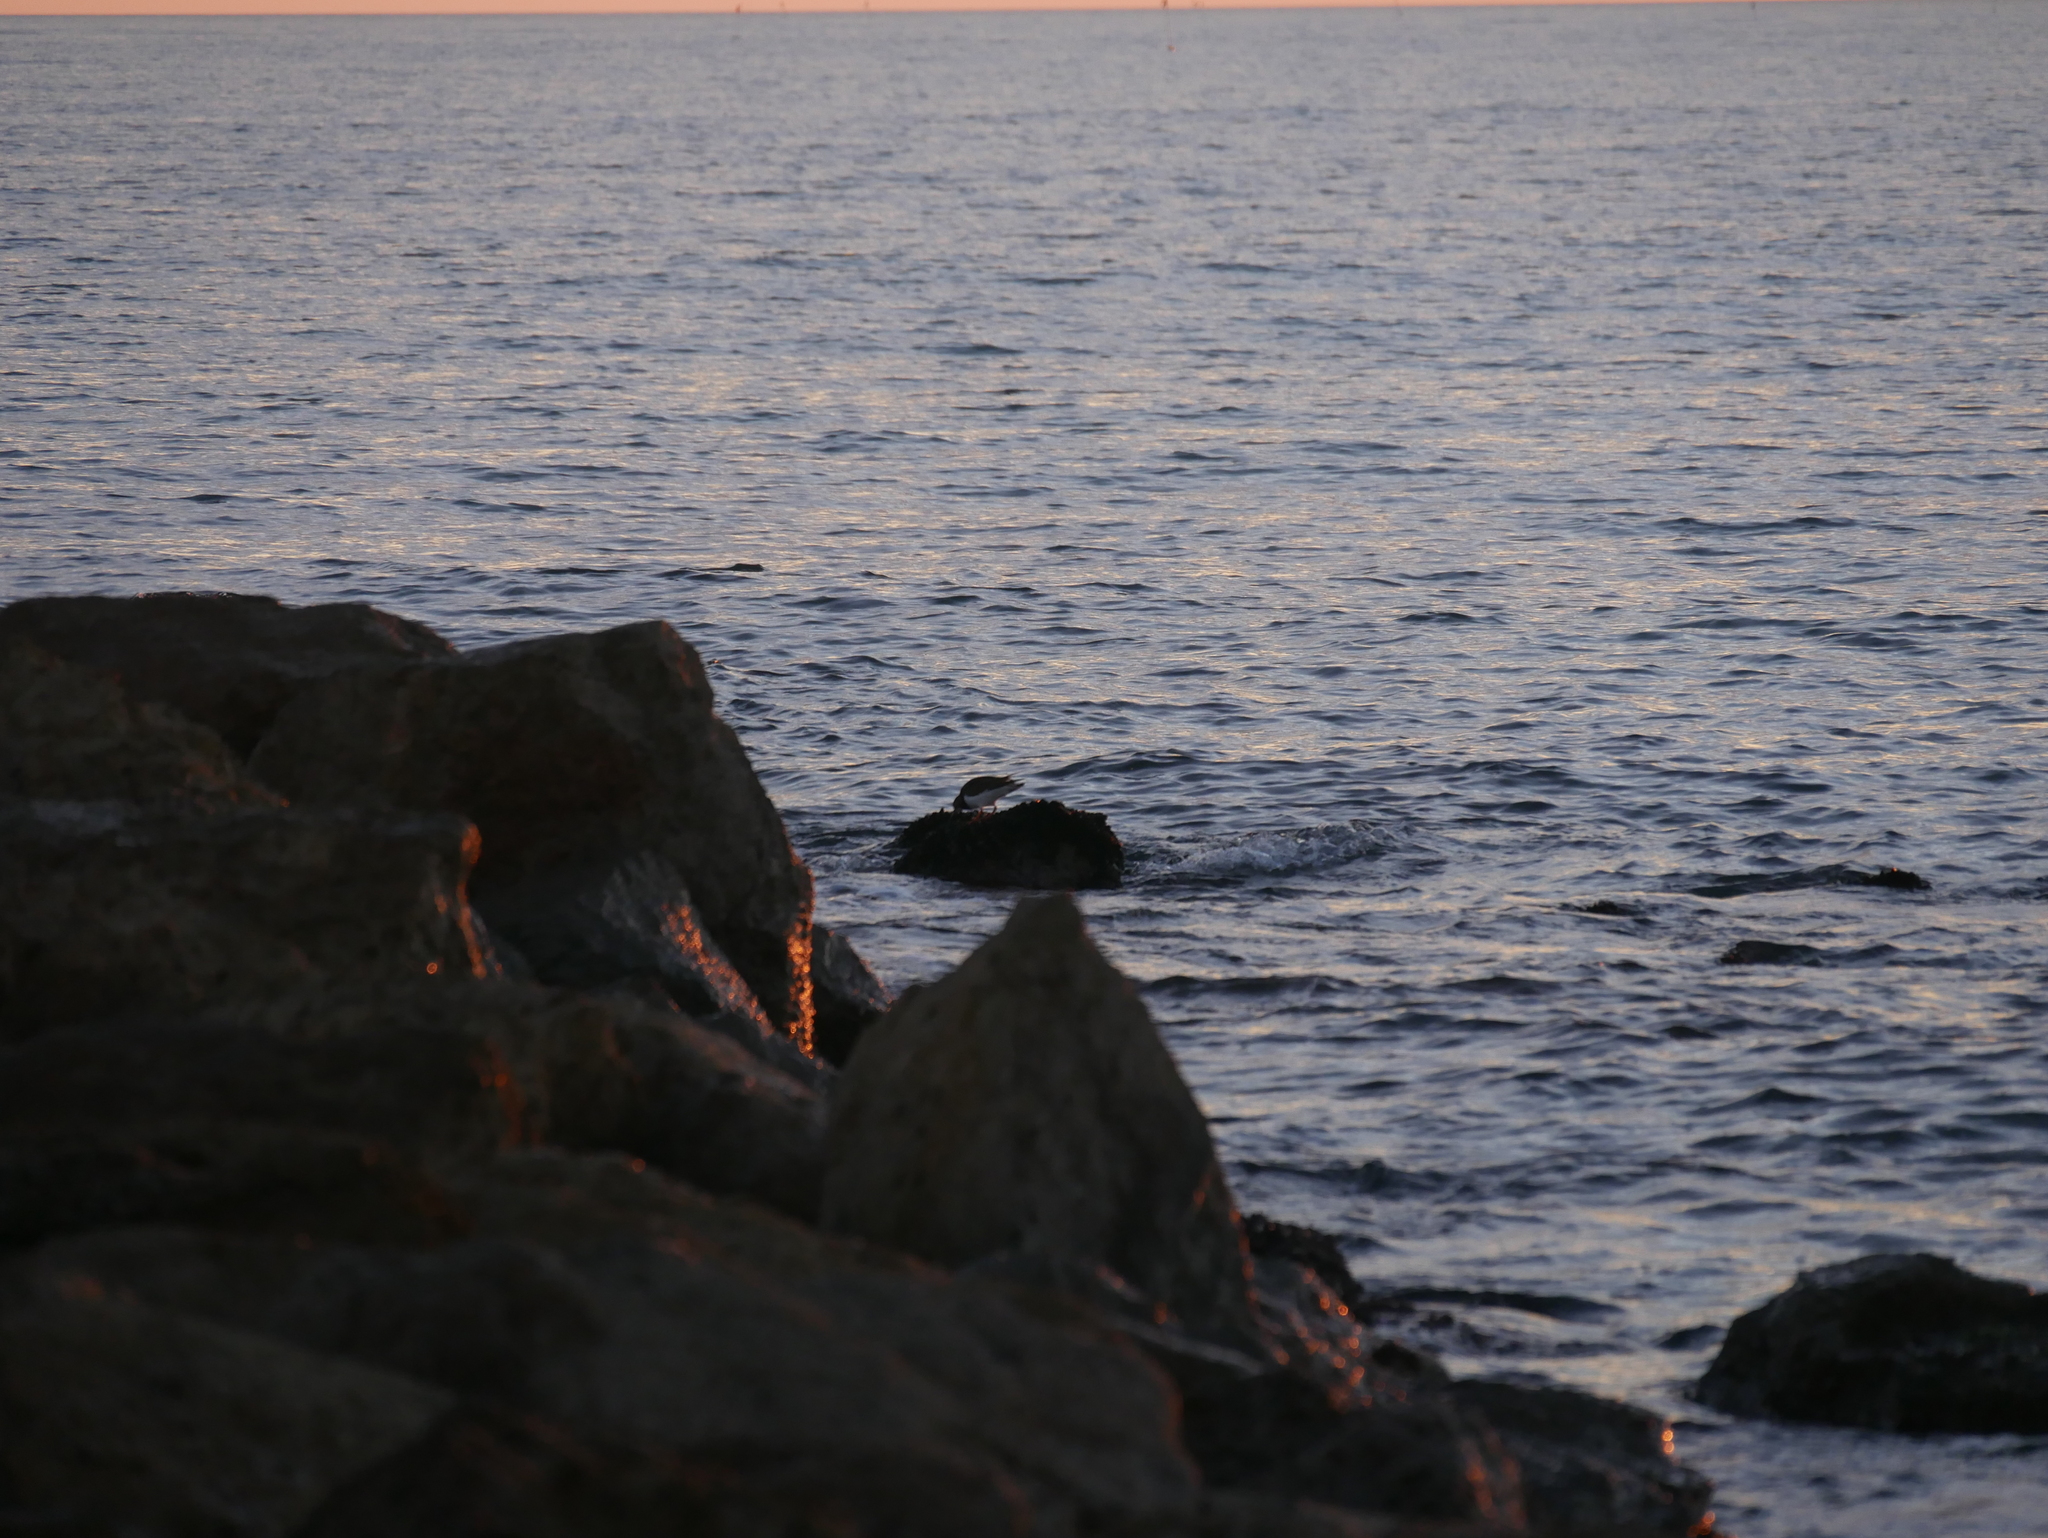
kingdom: Animalia
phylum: Chordata
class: Aves
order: Charadriiformes
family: Scolopacidae
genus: Arenaria
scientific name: Arenaria interpres
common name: Ruddy turnstone
